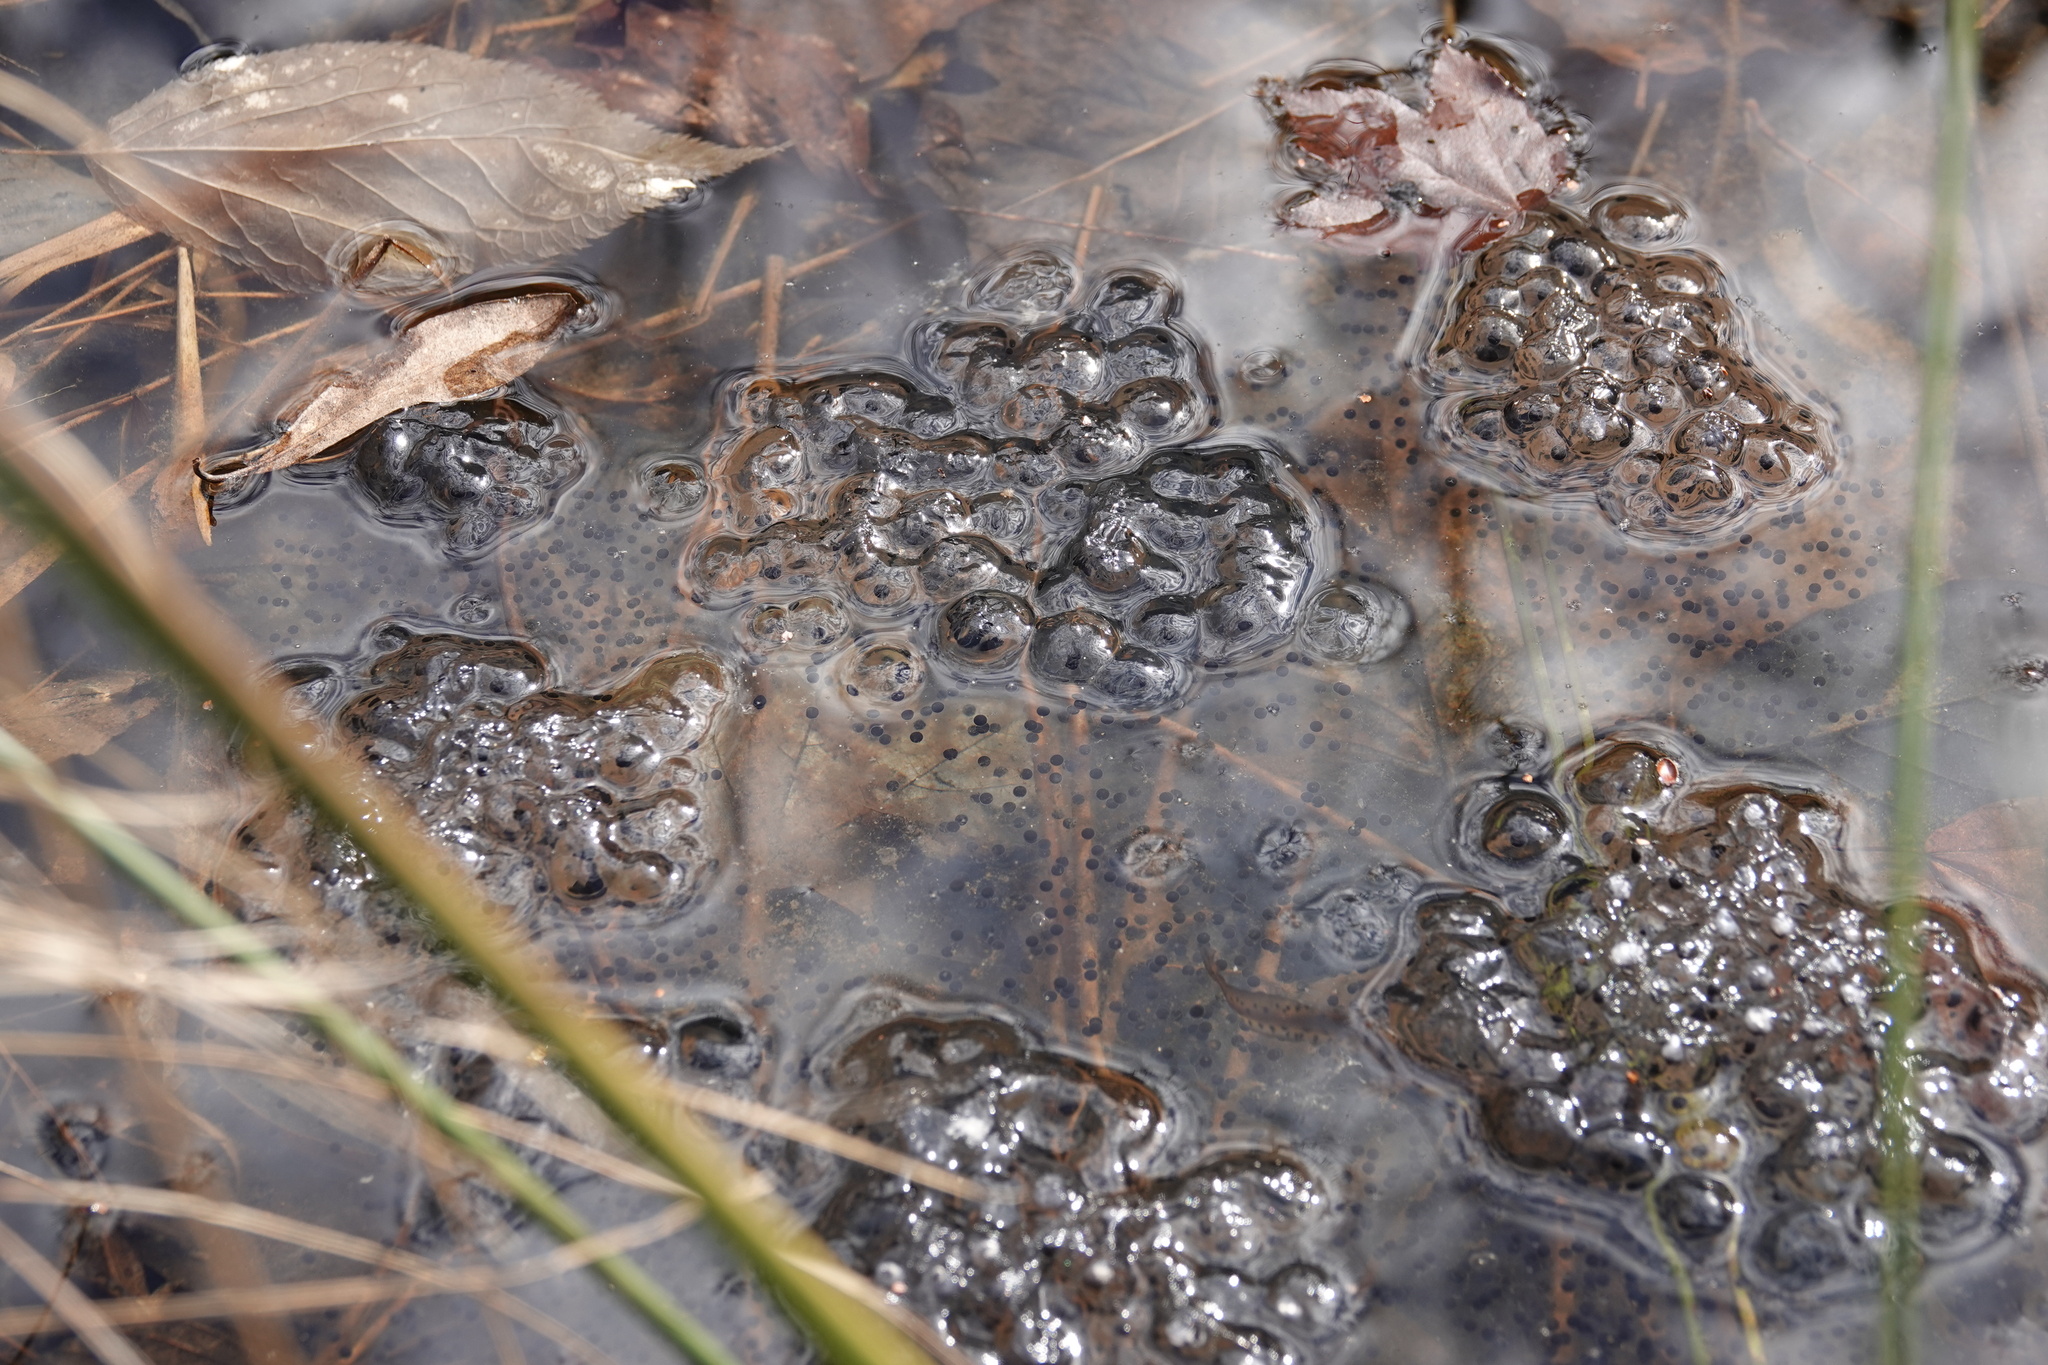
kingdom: Animalia
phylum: Chordata
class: Amphibia
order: Anura
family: Ranidae
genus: Lithobates
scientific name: Lithobates sylvaticus
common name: Wood frog
